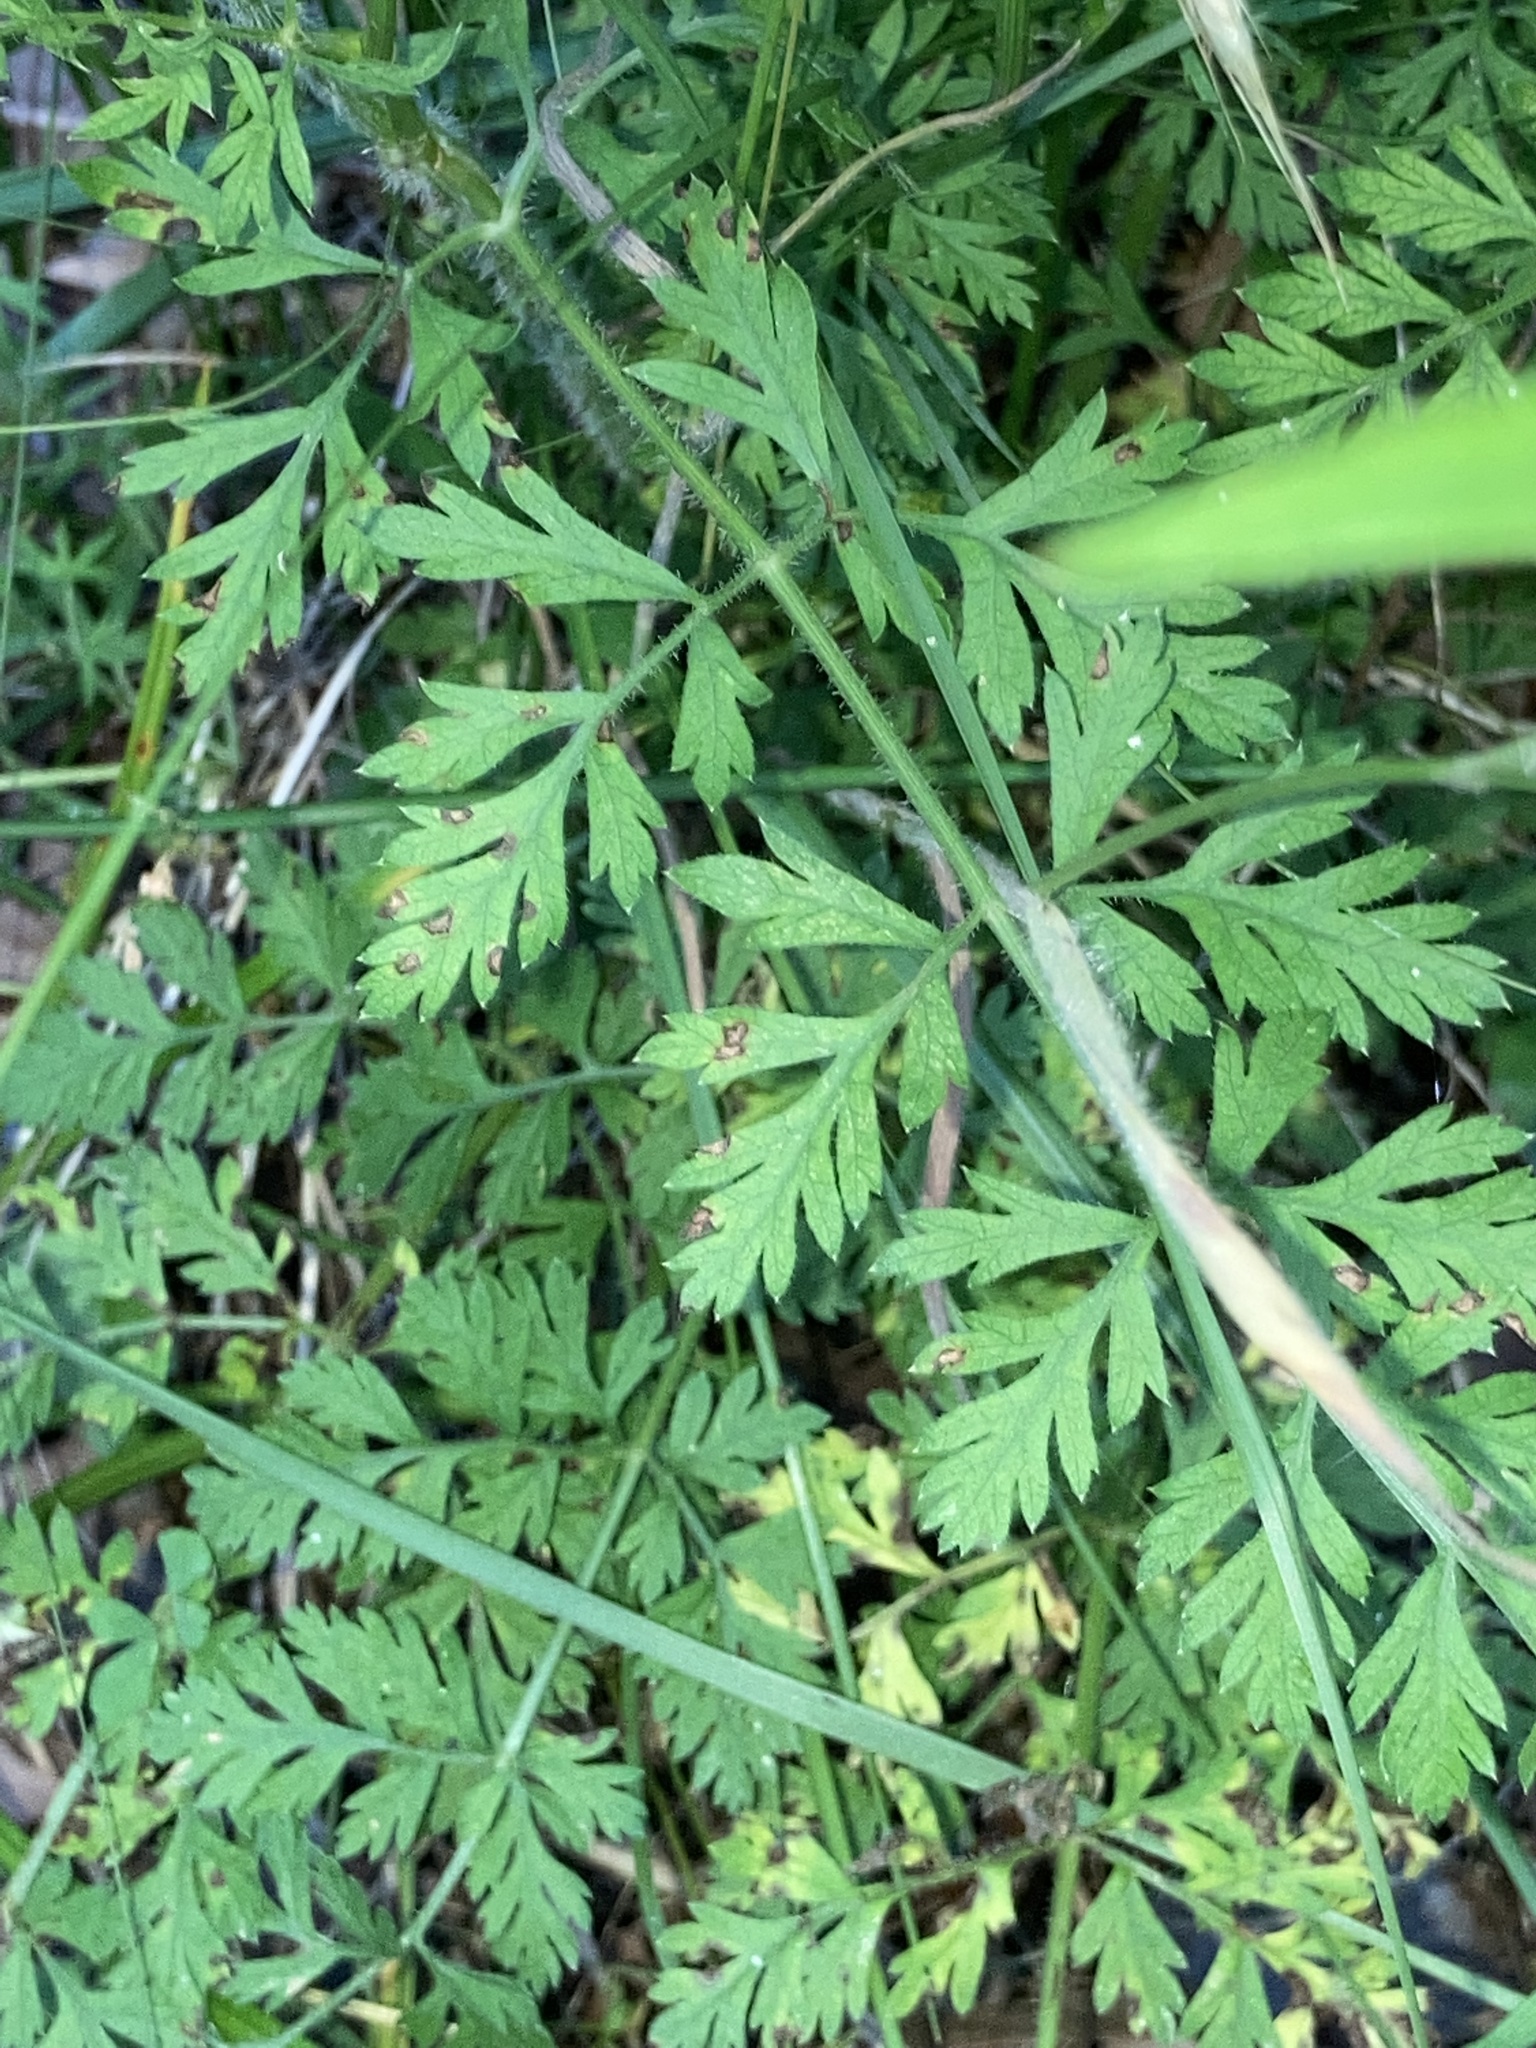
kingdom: Plantae
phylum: Tracheophyta
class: Magnoliopsida
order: Apiales
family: Apiaceae
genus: Daucus
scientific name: Daucus carota
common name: Wild carrot
